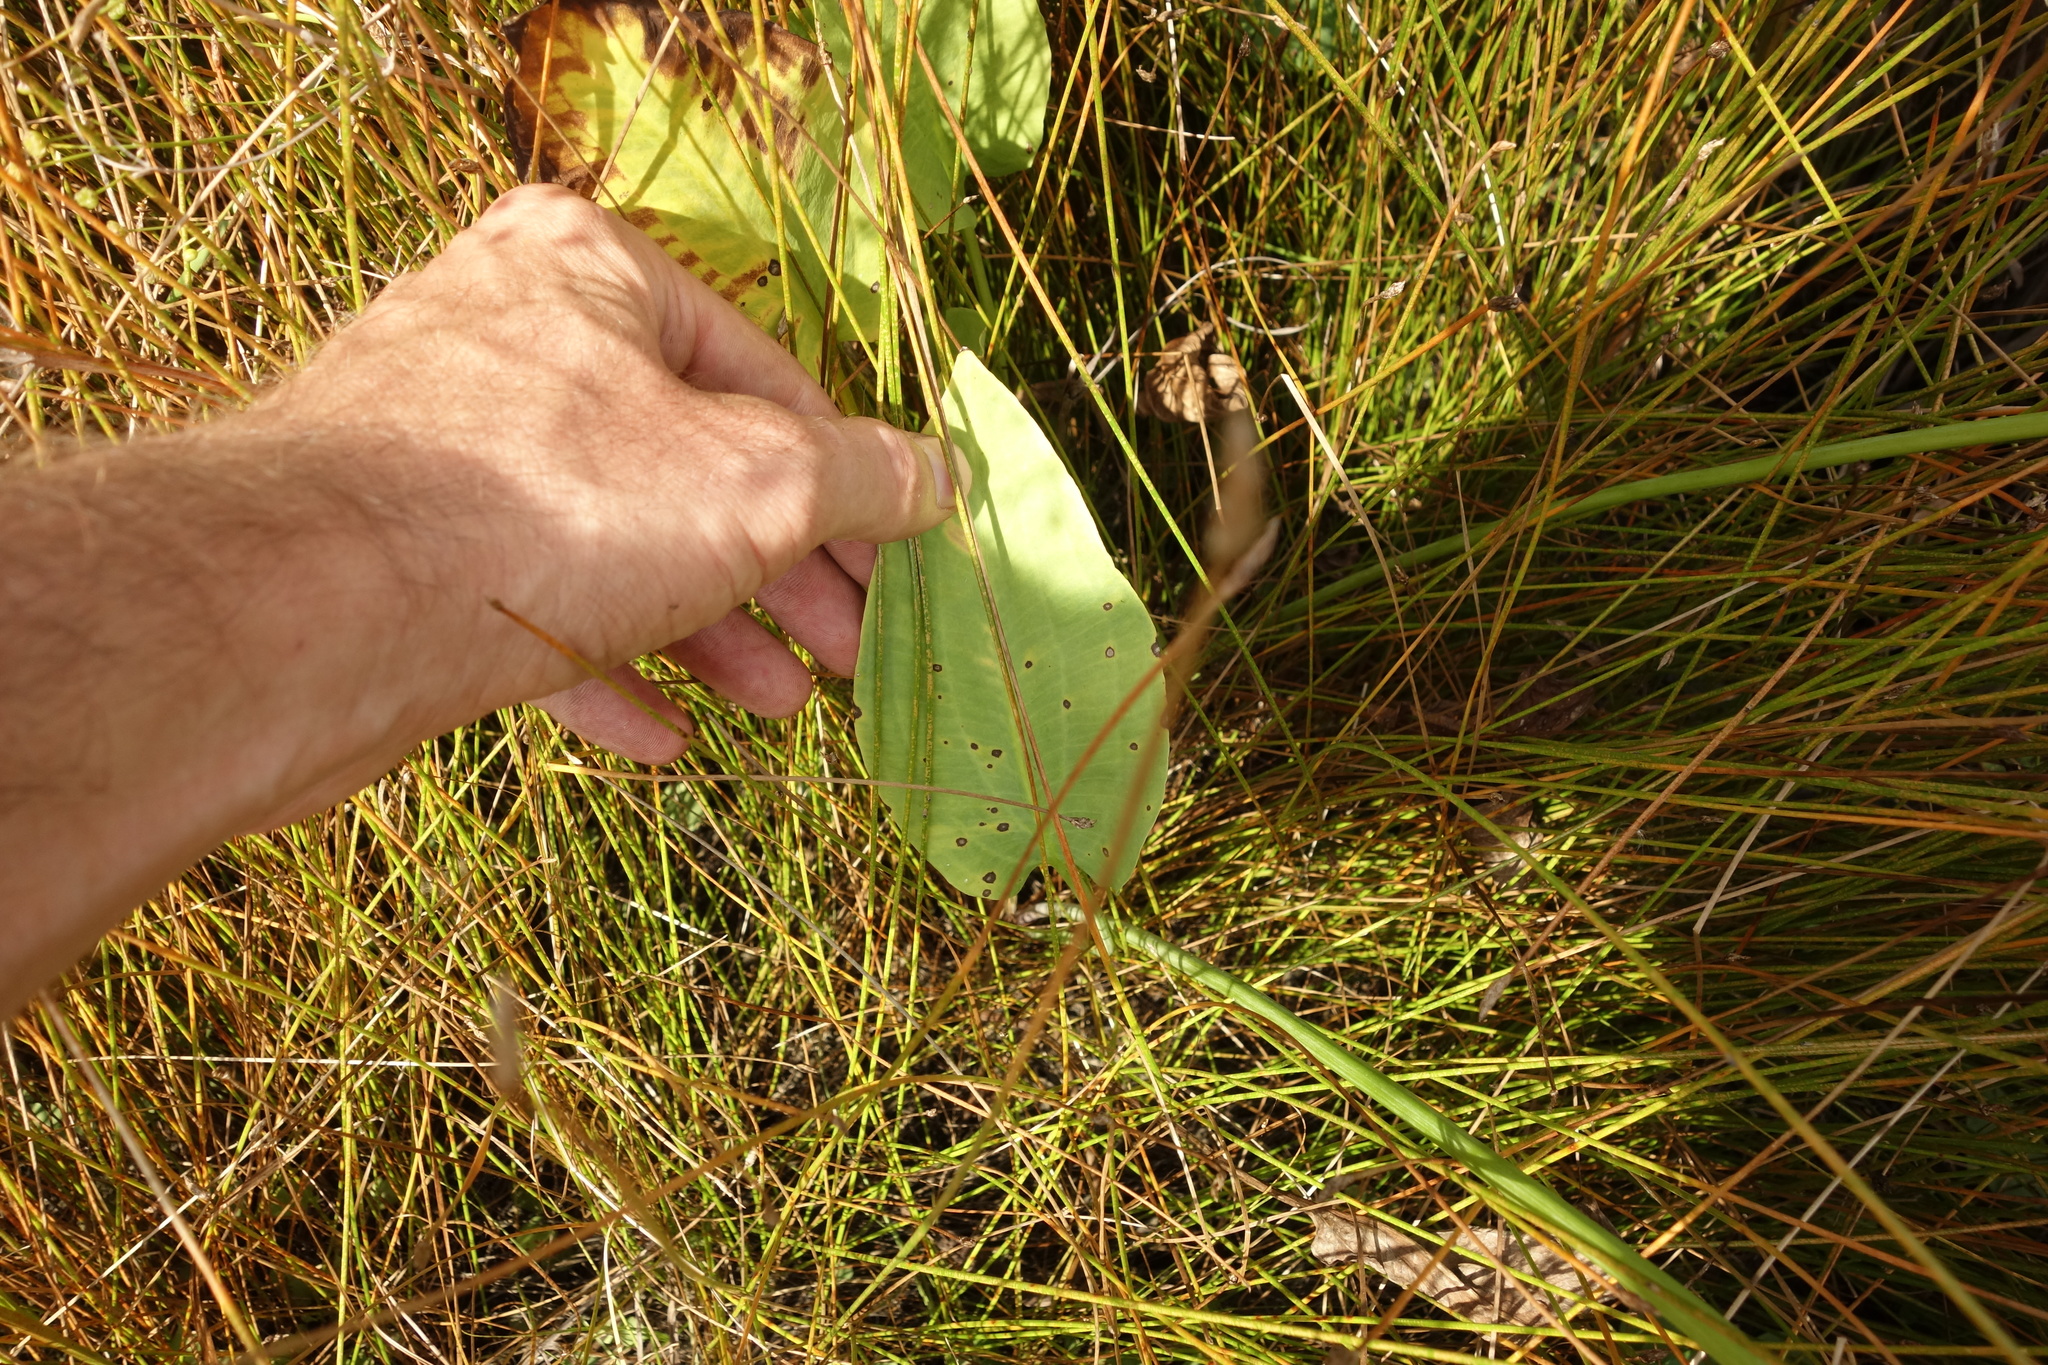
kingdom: Plantae
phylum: Tracheophyta
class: Liliopsida
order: Alismatales
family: Alismataceae
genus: Alisma
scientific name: Alisma plantago-aquatica
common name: Water-plantain
